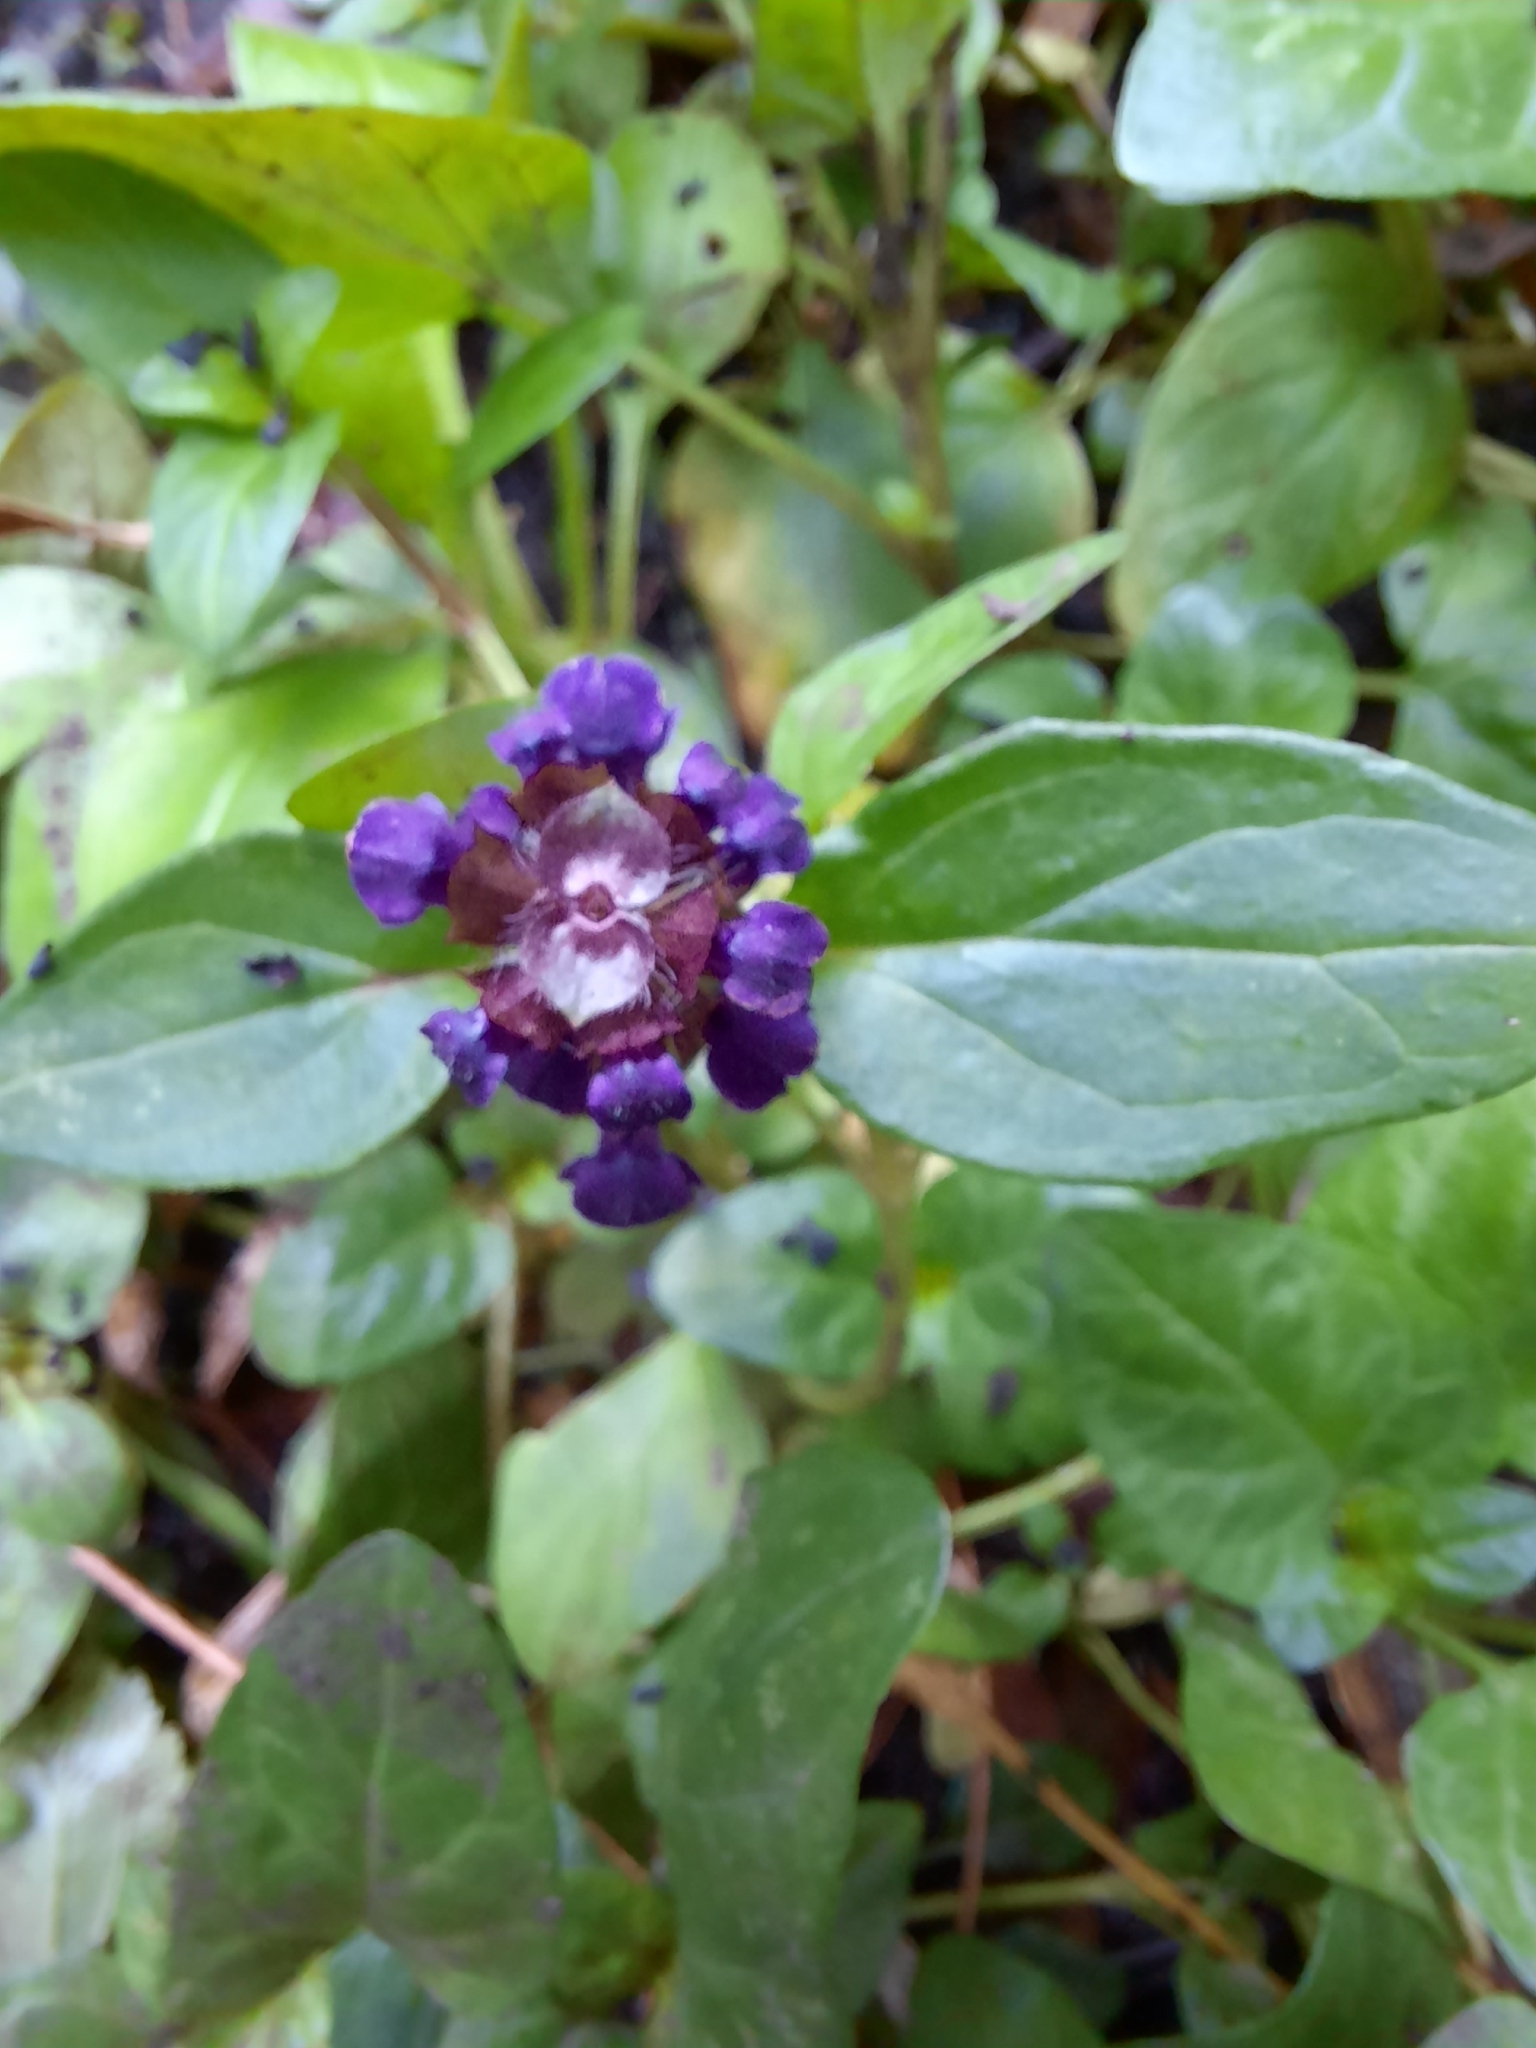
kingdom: Plantae
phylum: Tracheophyta
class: Magnoliopsida
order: Lamiales
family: Lamiaceae
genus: Prunella
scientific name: Prunella vulgaris
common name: Heal-all
